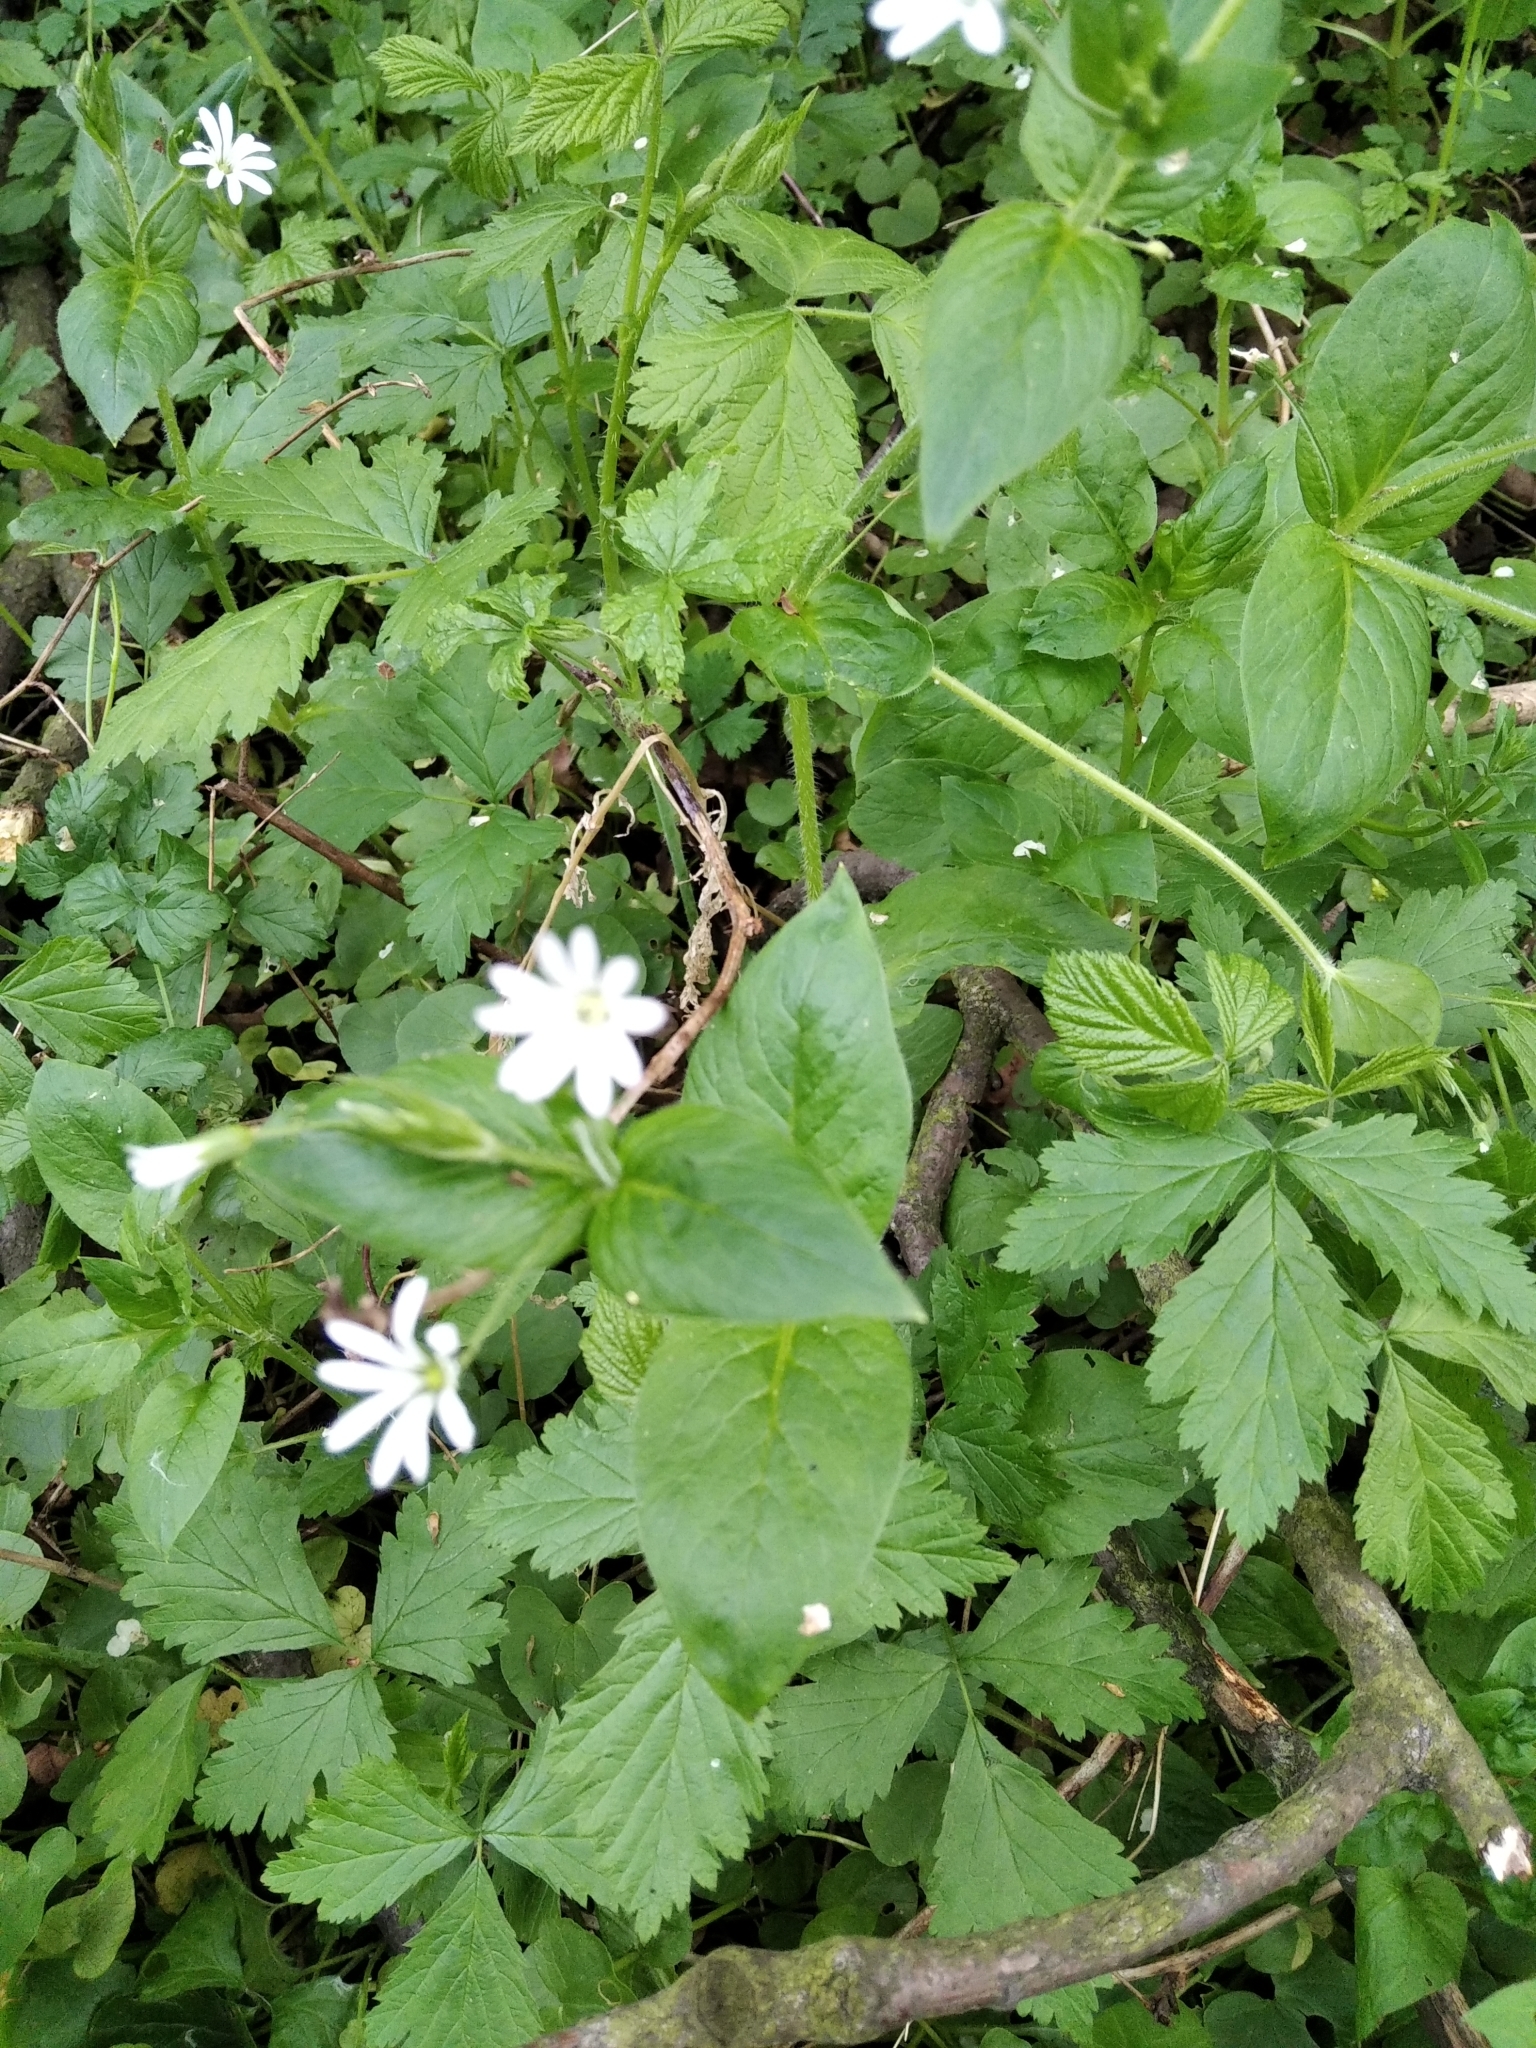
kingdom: Plantae
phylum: Tracheophyta
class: Magnoliopsida
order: Caryophyllales
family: Caryophyllaceae
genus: Stellaria
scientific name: Stellaria nemorum
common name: Wood stitchwort
